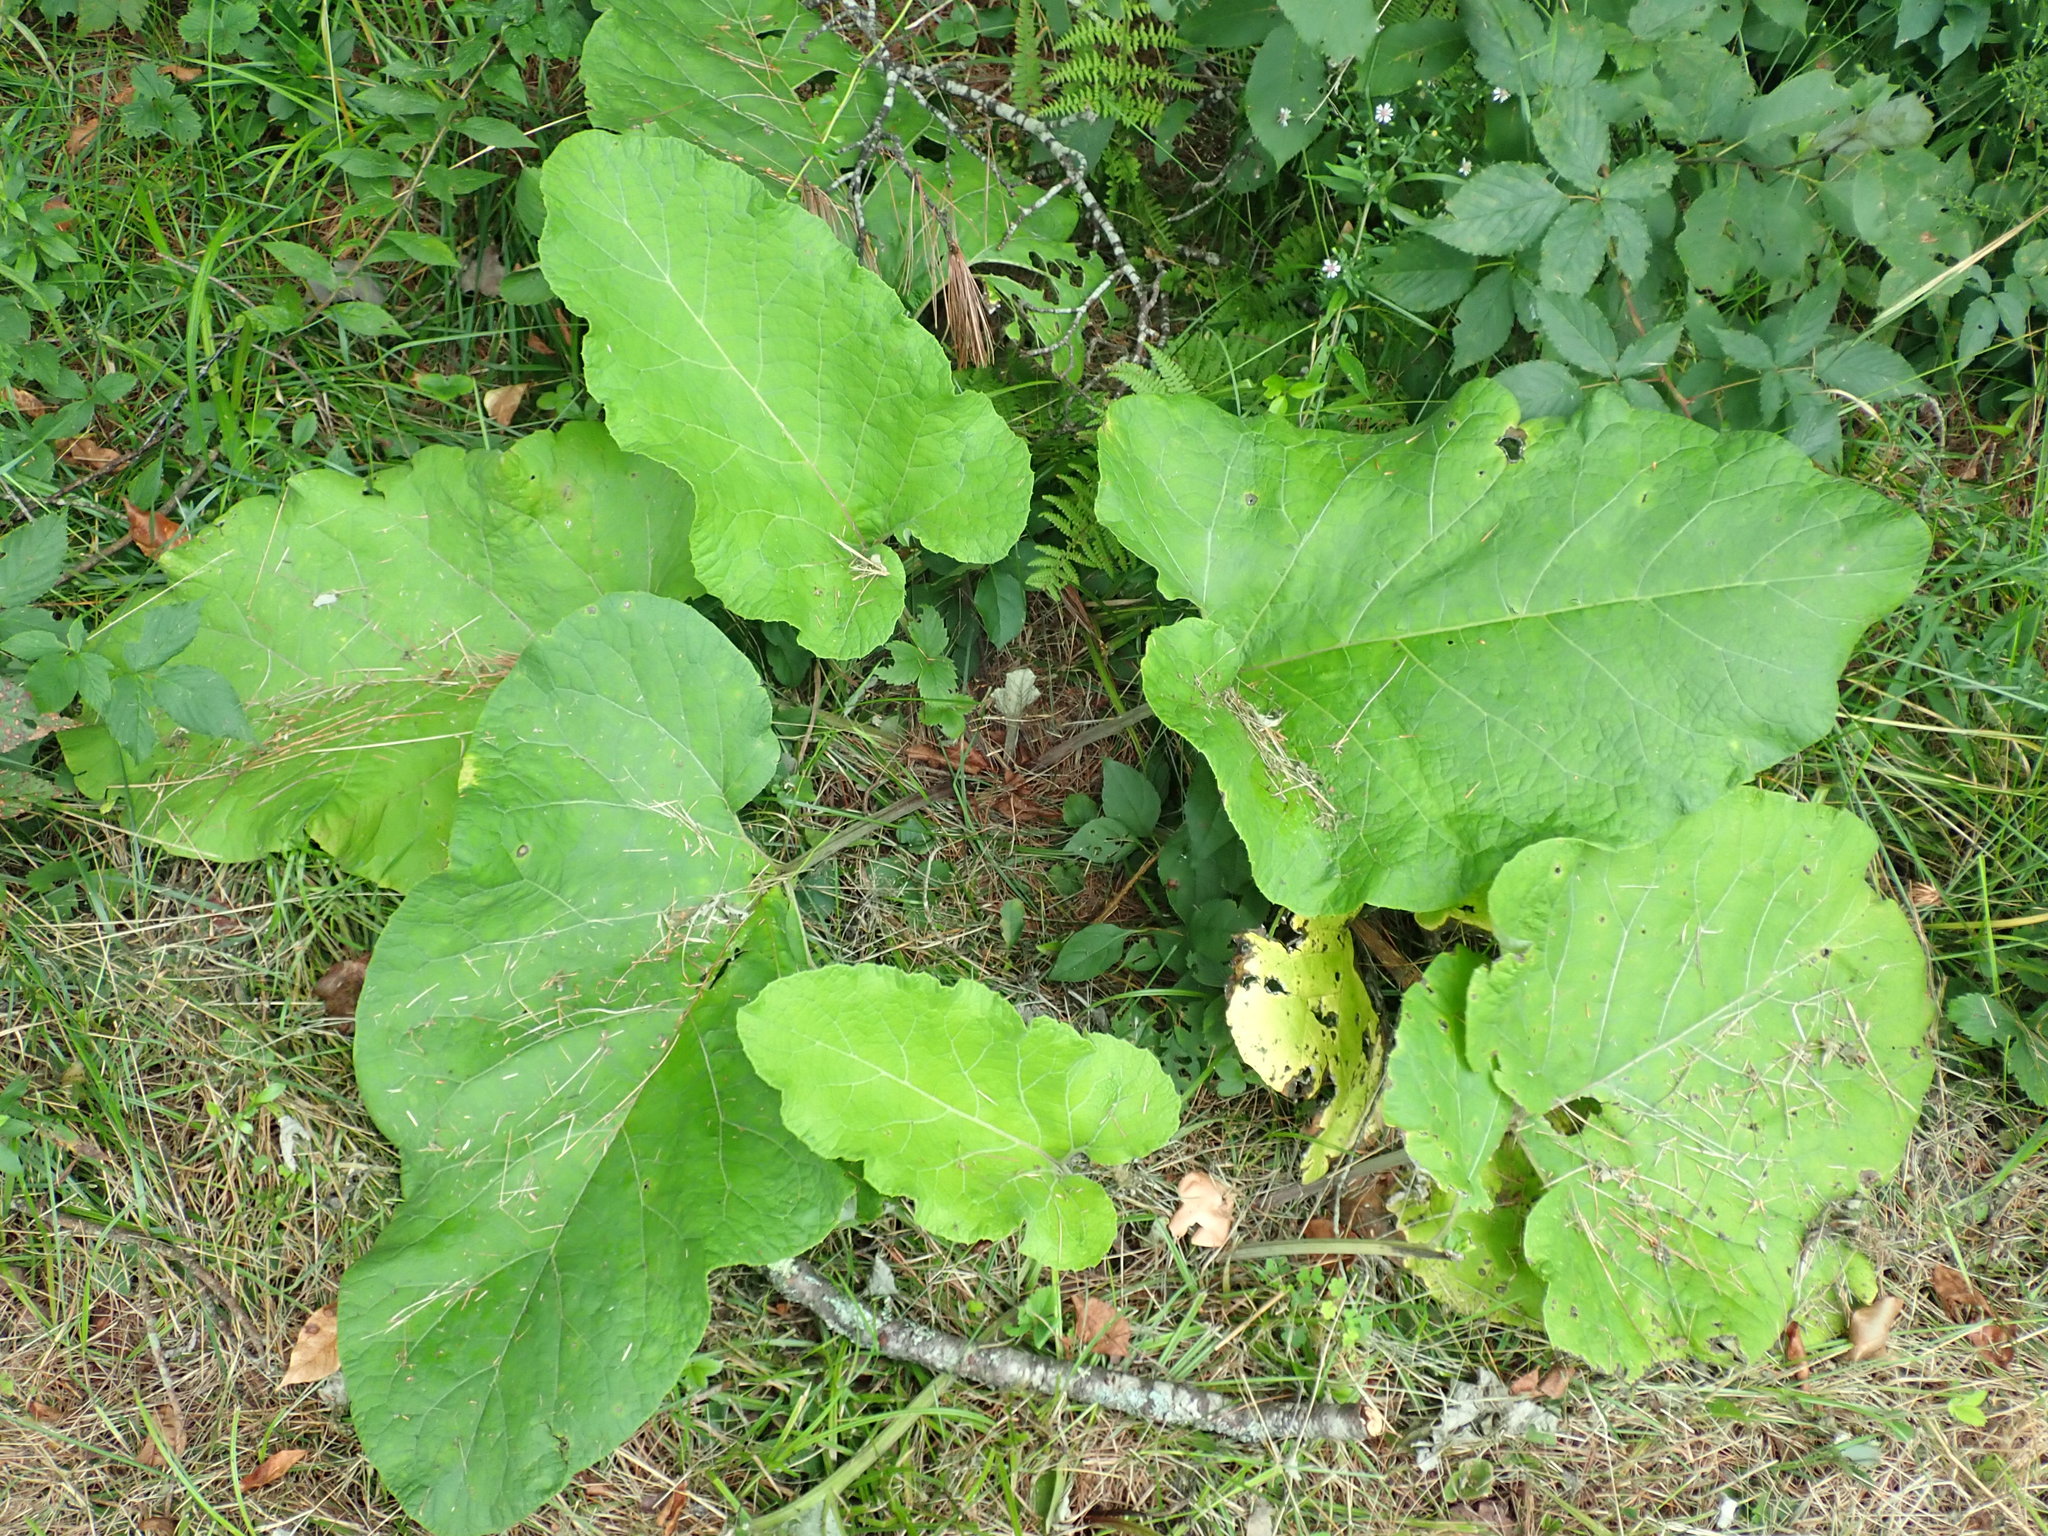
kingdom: Plantae
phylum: Tracheophyta
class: Magnoliopsida
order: Asterales
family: Asteraceae
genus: Arctium
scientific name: Arctium
